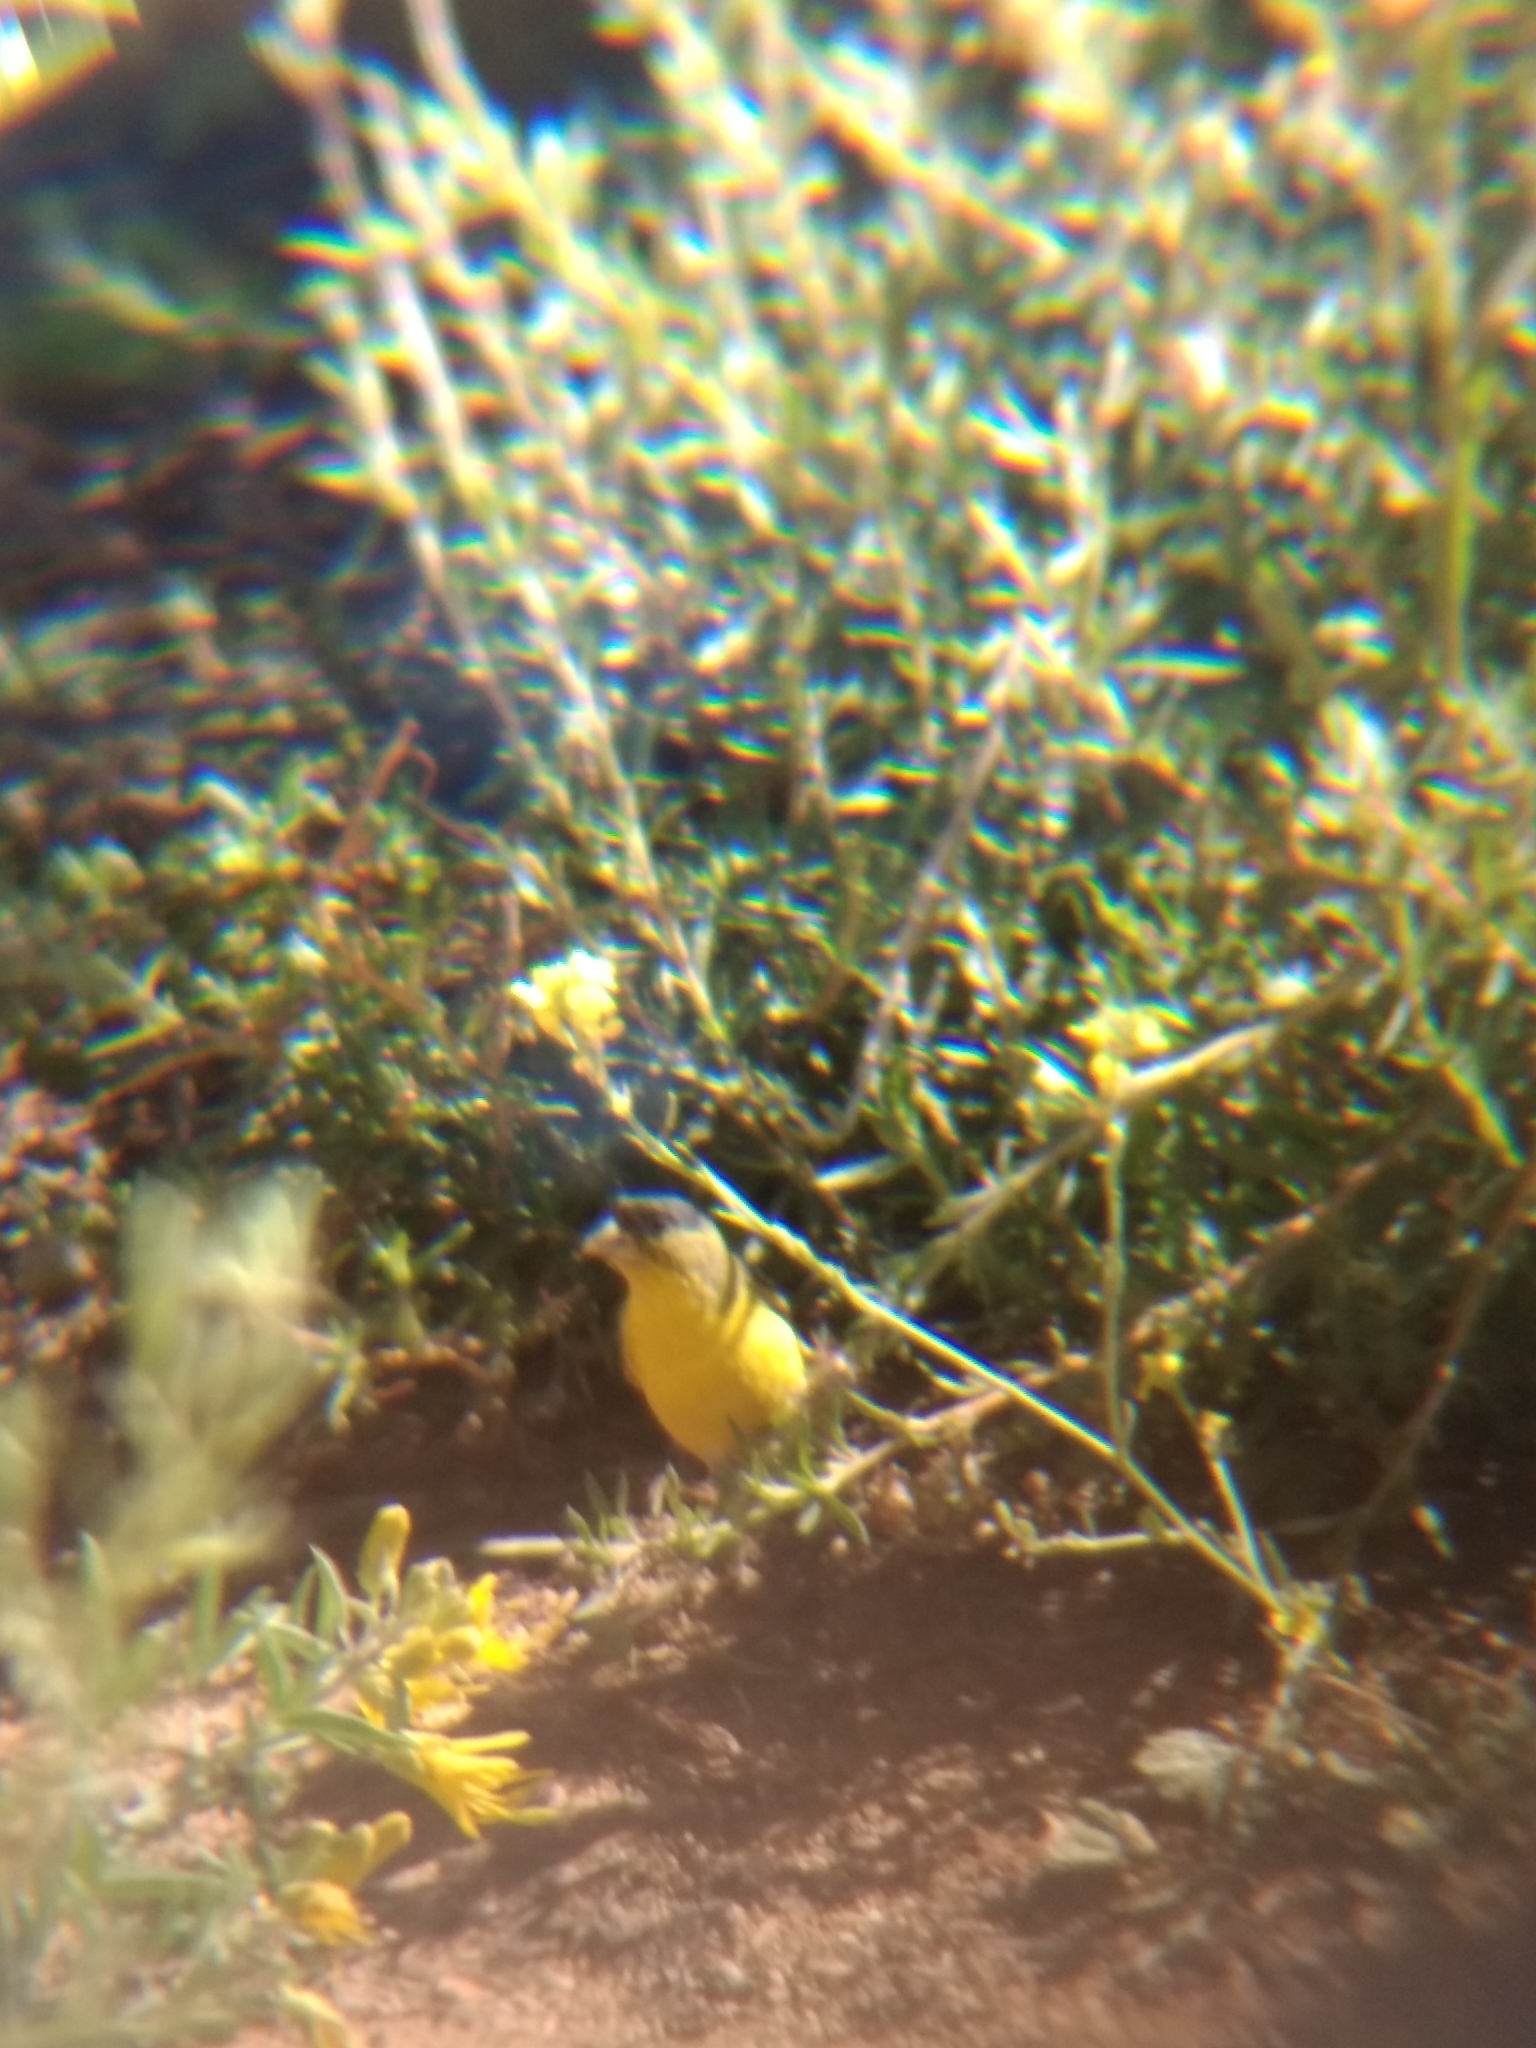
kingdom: Animalia
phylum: Chordata
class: Aves
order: Passeriformes
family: Fringillidae
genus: Spinus
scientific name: Spinus psaltria
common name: Lesser goldfinch
